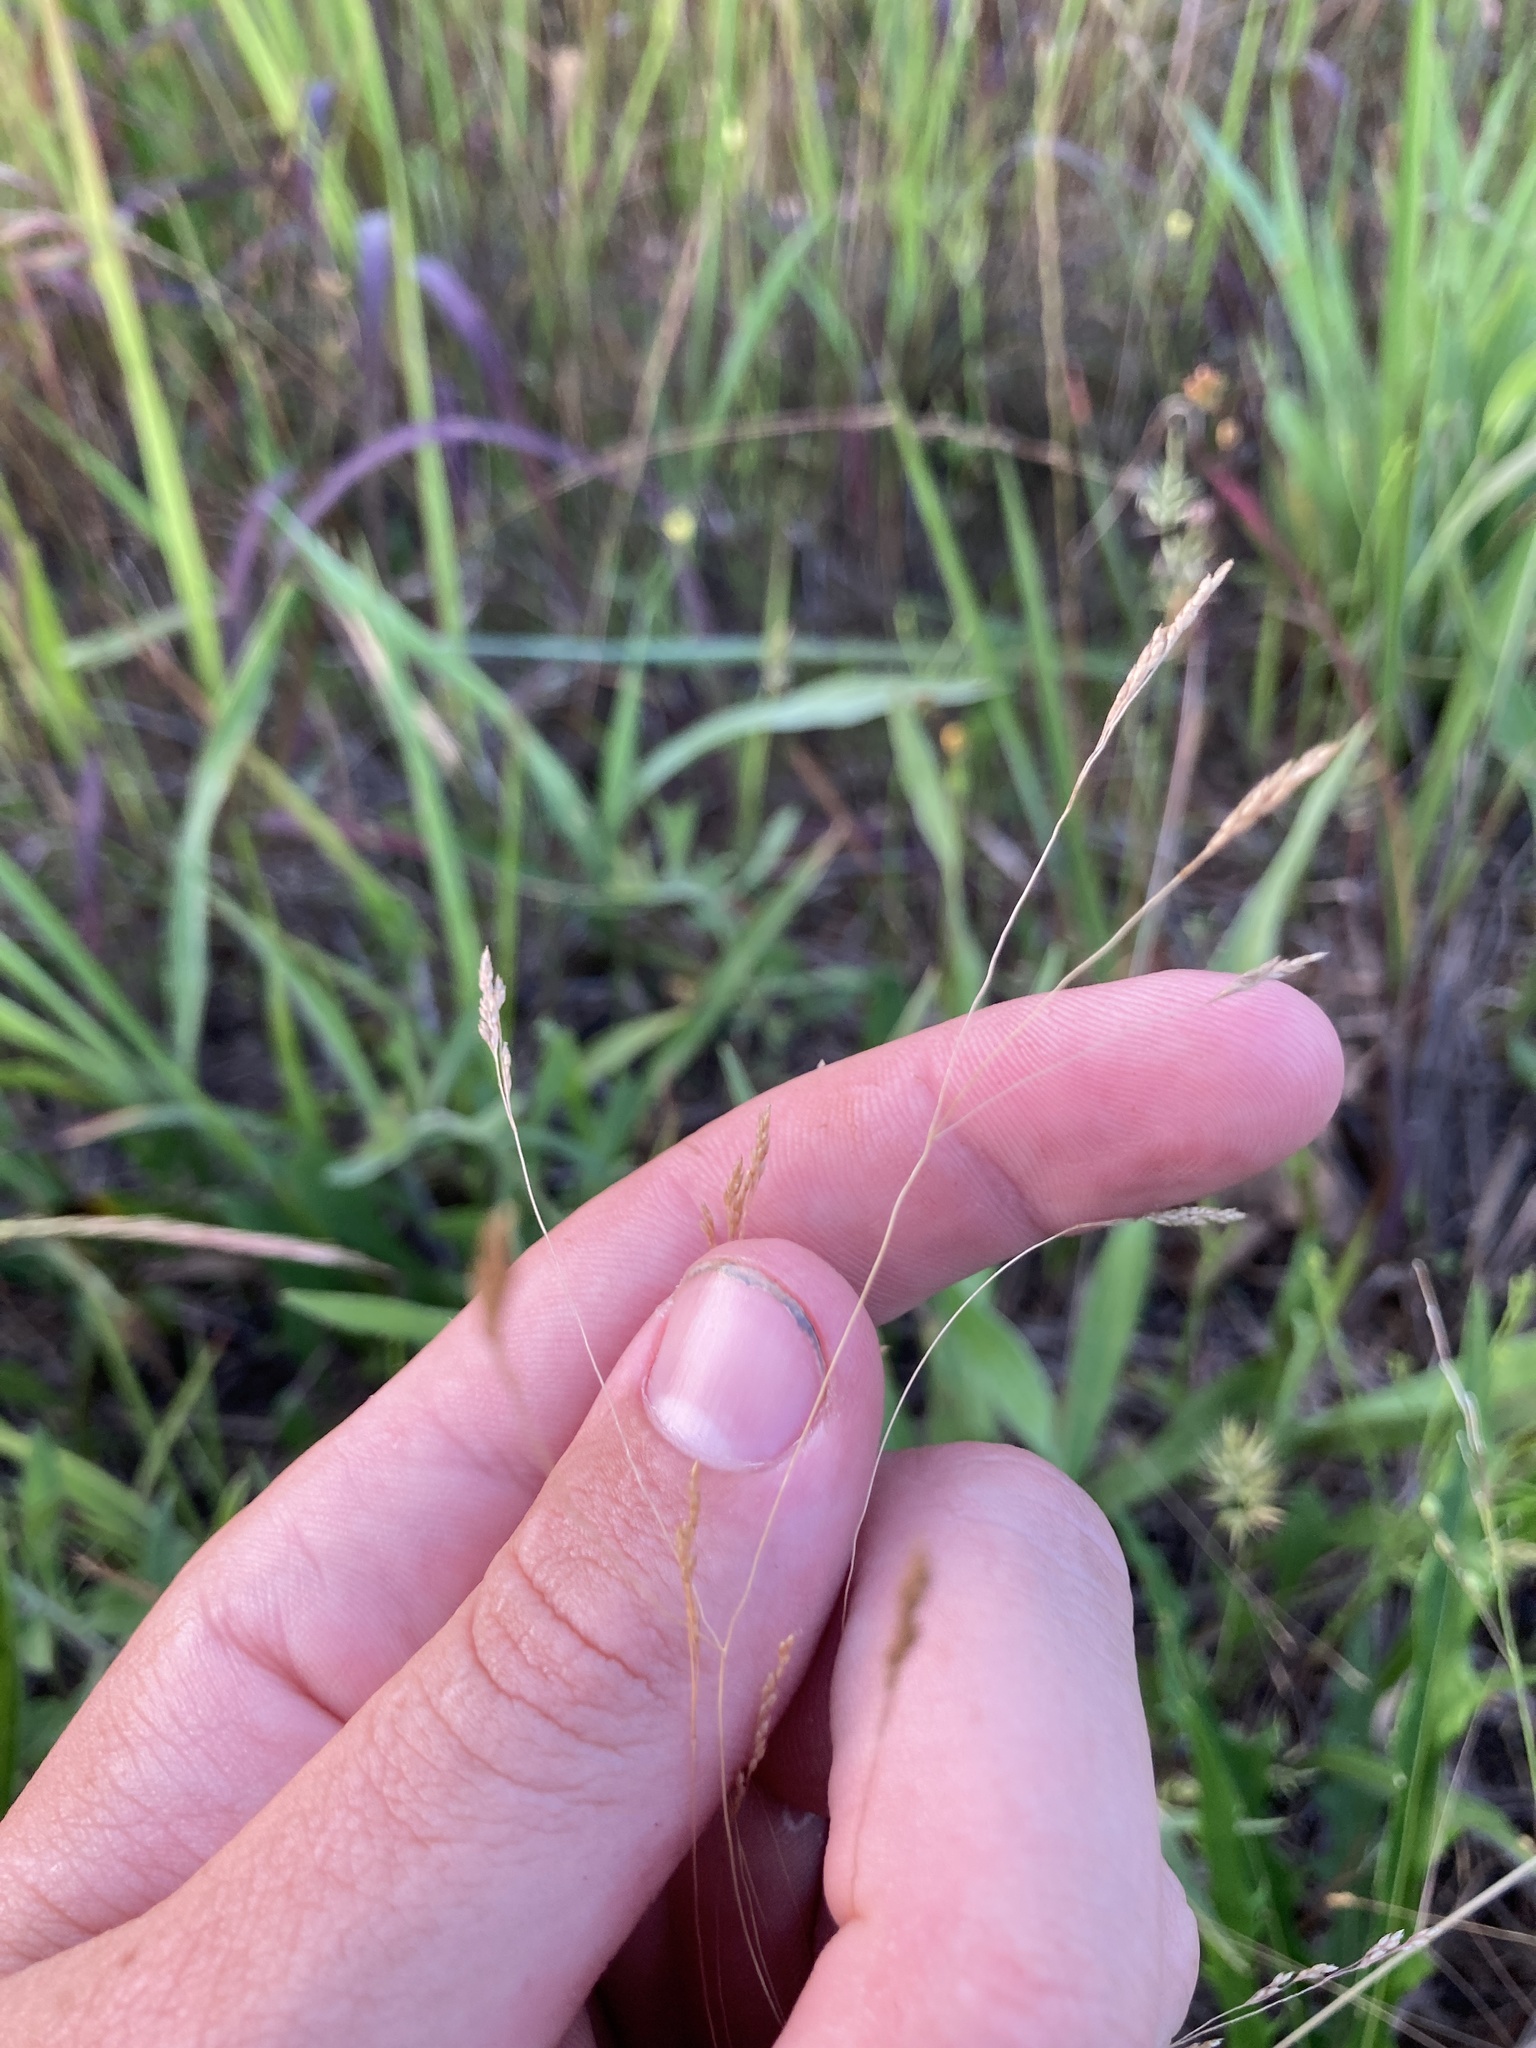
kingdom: Plantae
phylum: Tracheophyta
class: Liliopsida
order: Poales
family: Poaceae
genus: Agrostis
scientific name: Agrostis hyemalis
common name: Small bent
